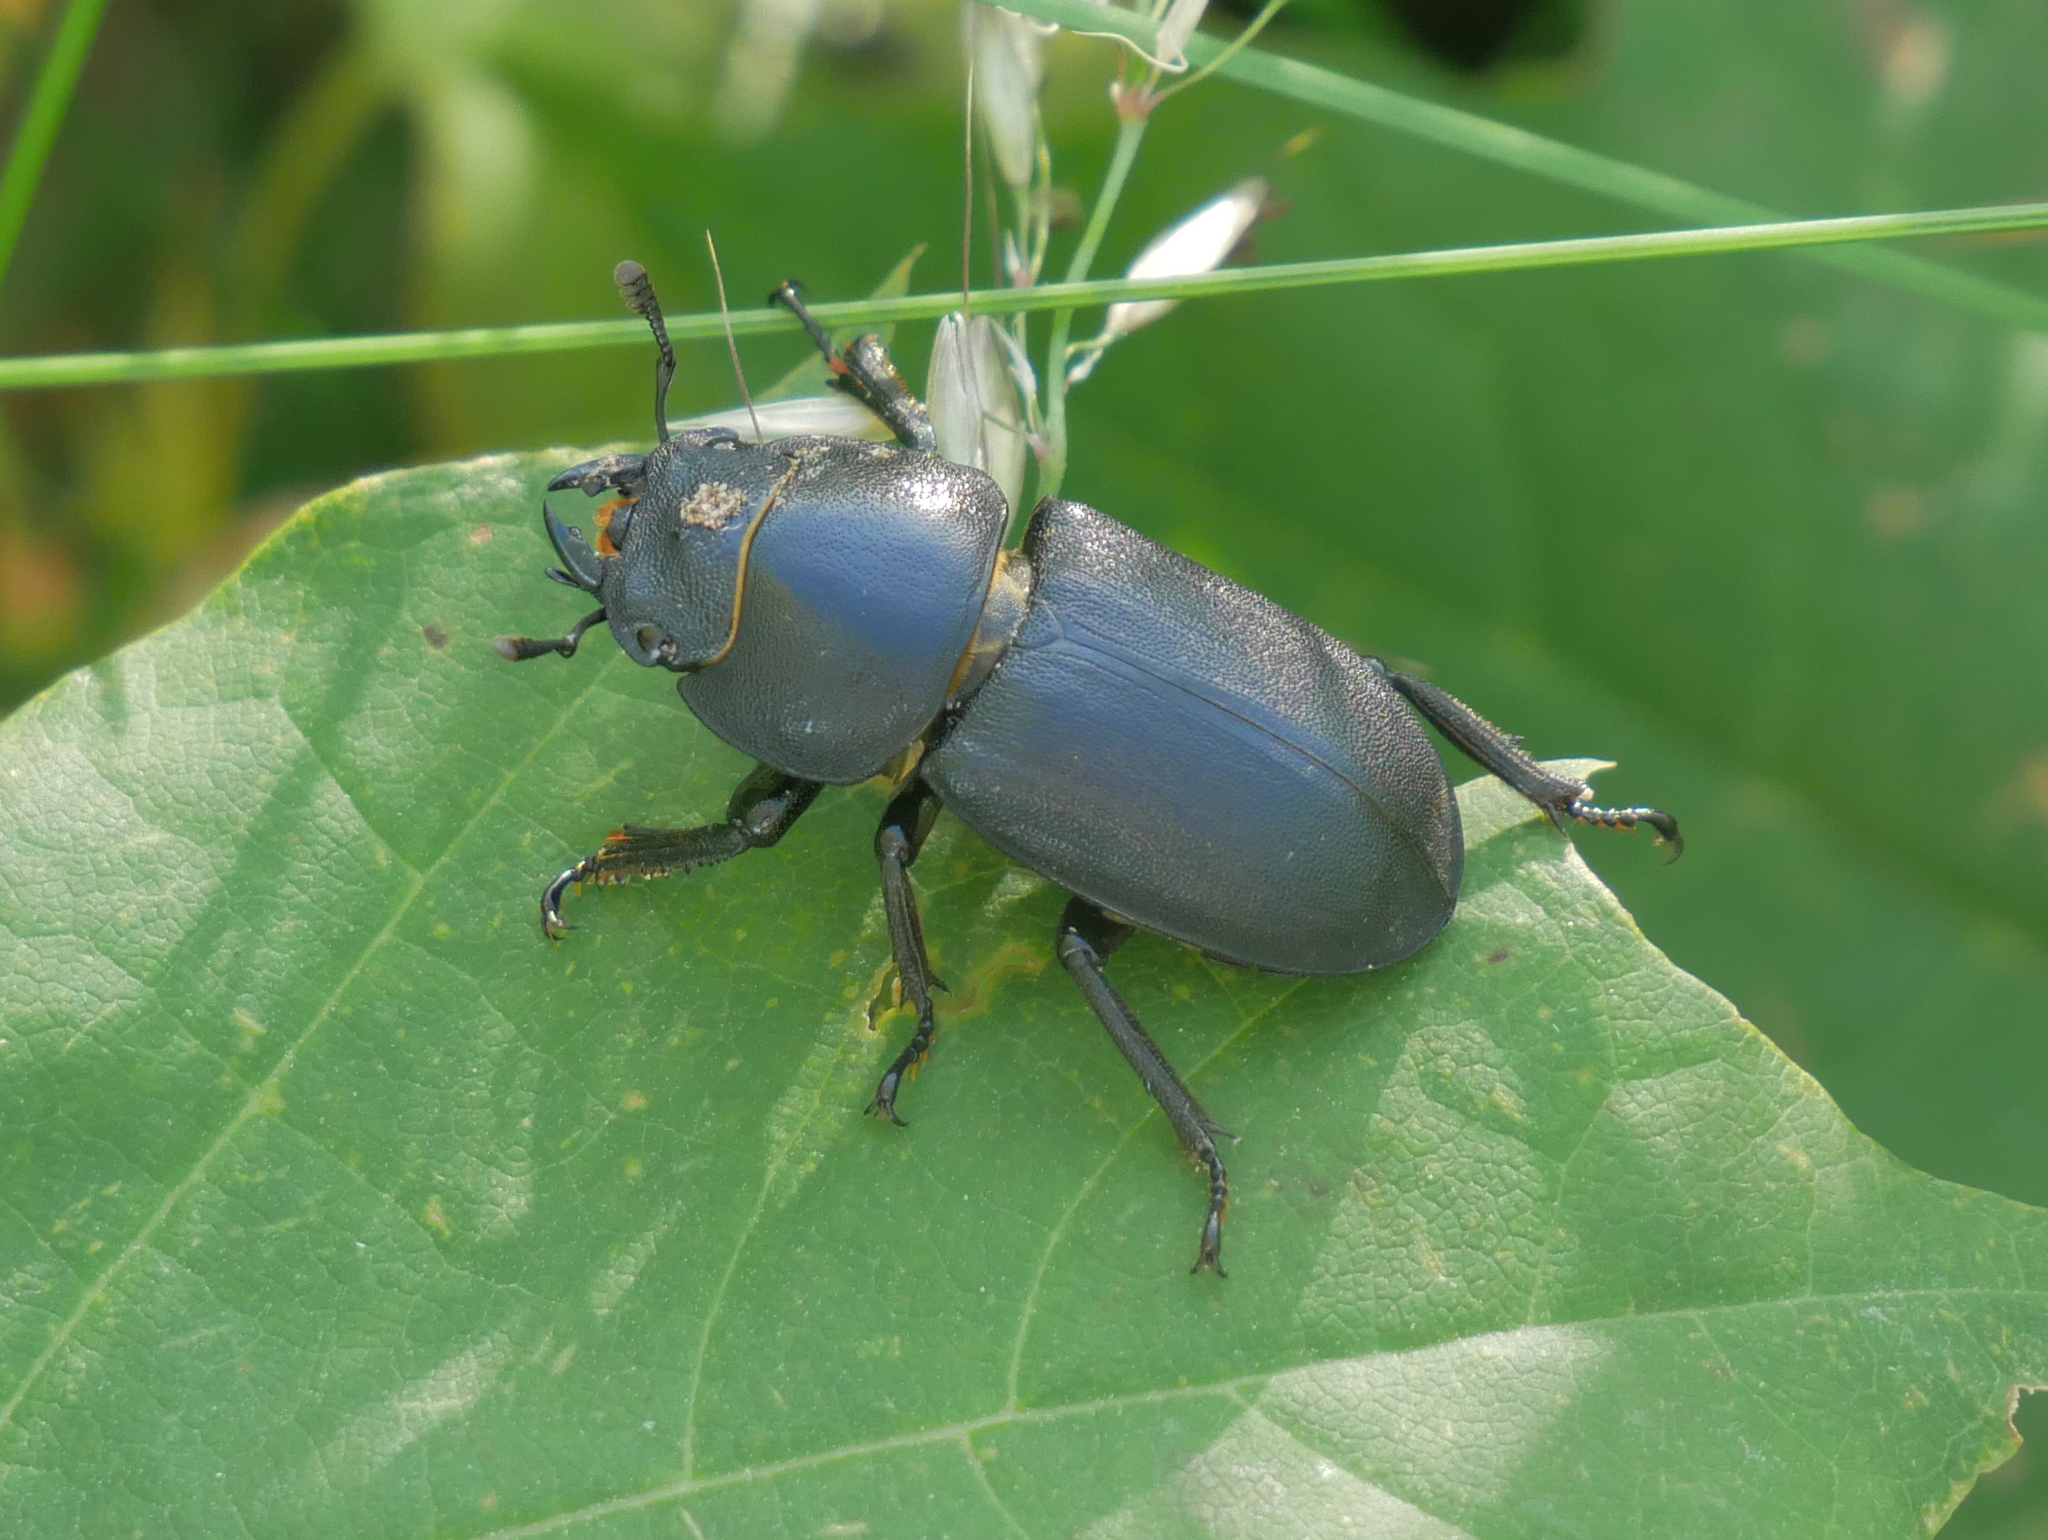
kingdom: Animalia
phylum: Arthropoda
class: Insecta
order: Coleoptera
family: Lucanidae
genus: Dorcus
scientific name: Dorcus parallelipipedus
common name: Lesser stag beetle
